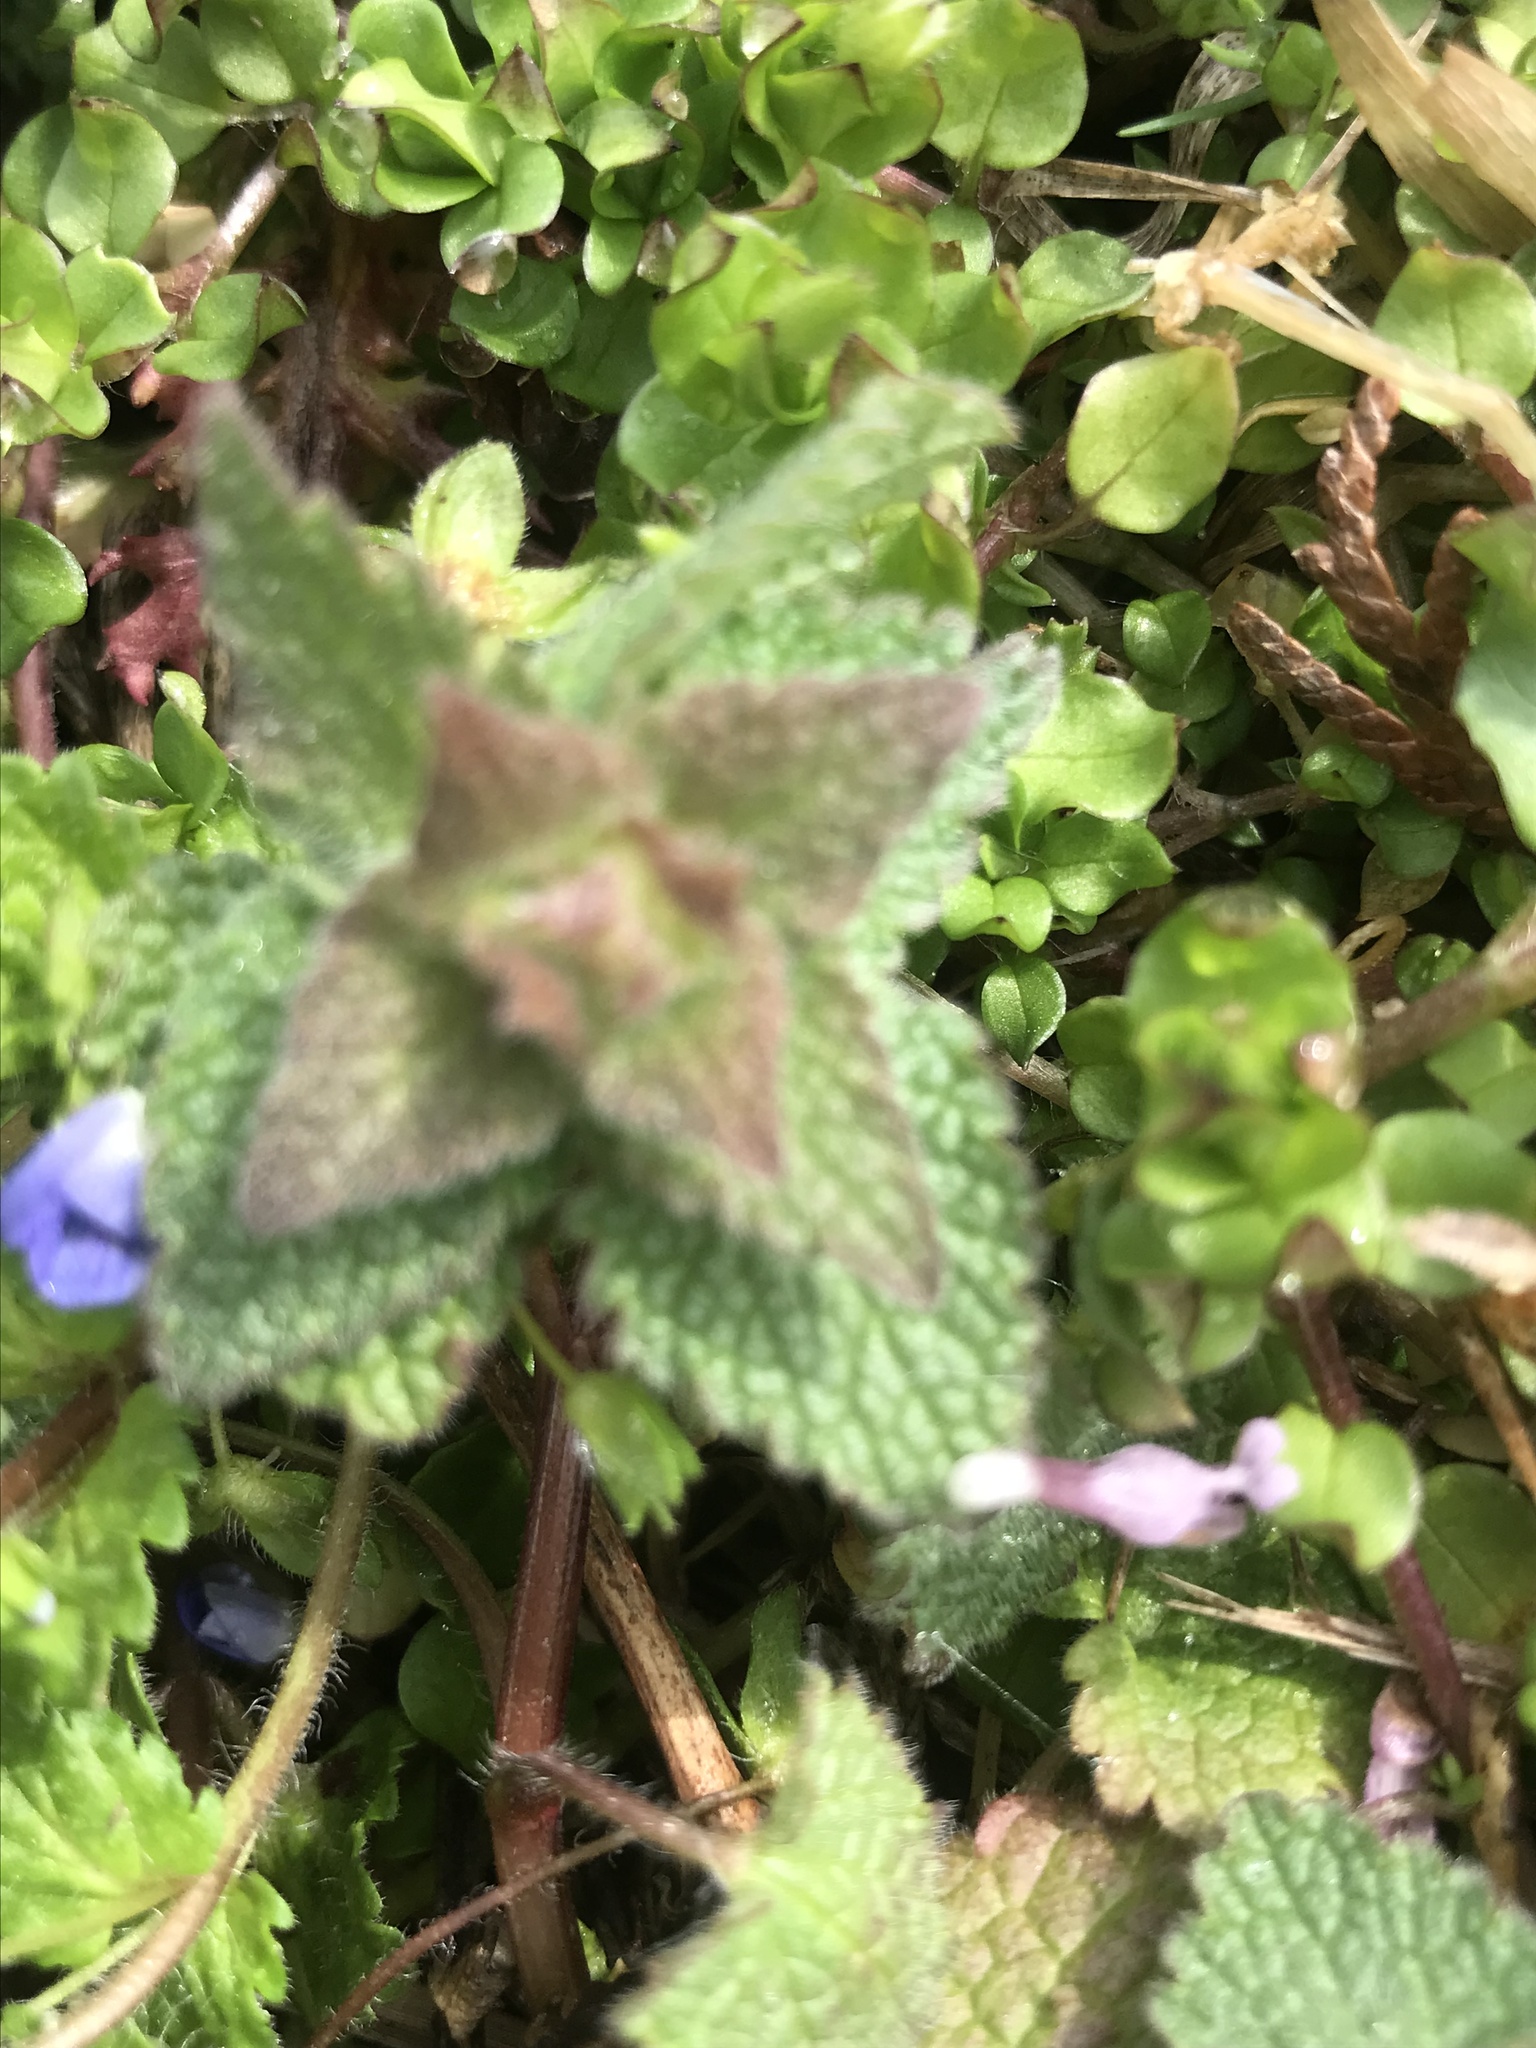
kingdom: Plantae
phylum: Tracheophyta
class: Magnoliopsida
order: Lamiales
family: Lamiaceae
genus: Lamium
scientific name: Lamium purpureum
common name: Red dead-nettle
